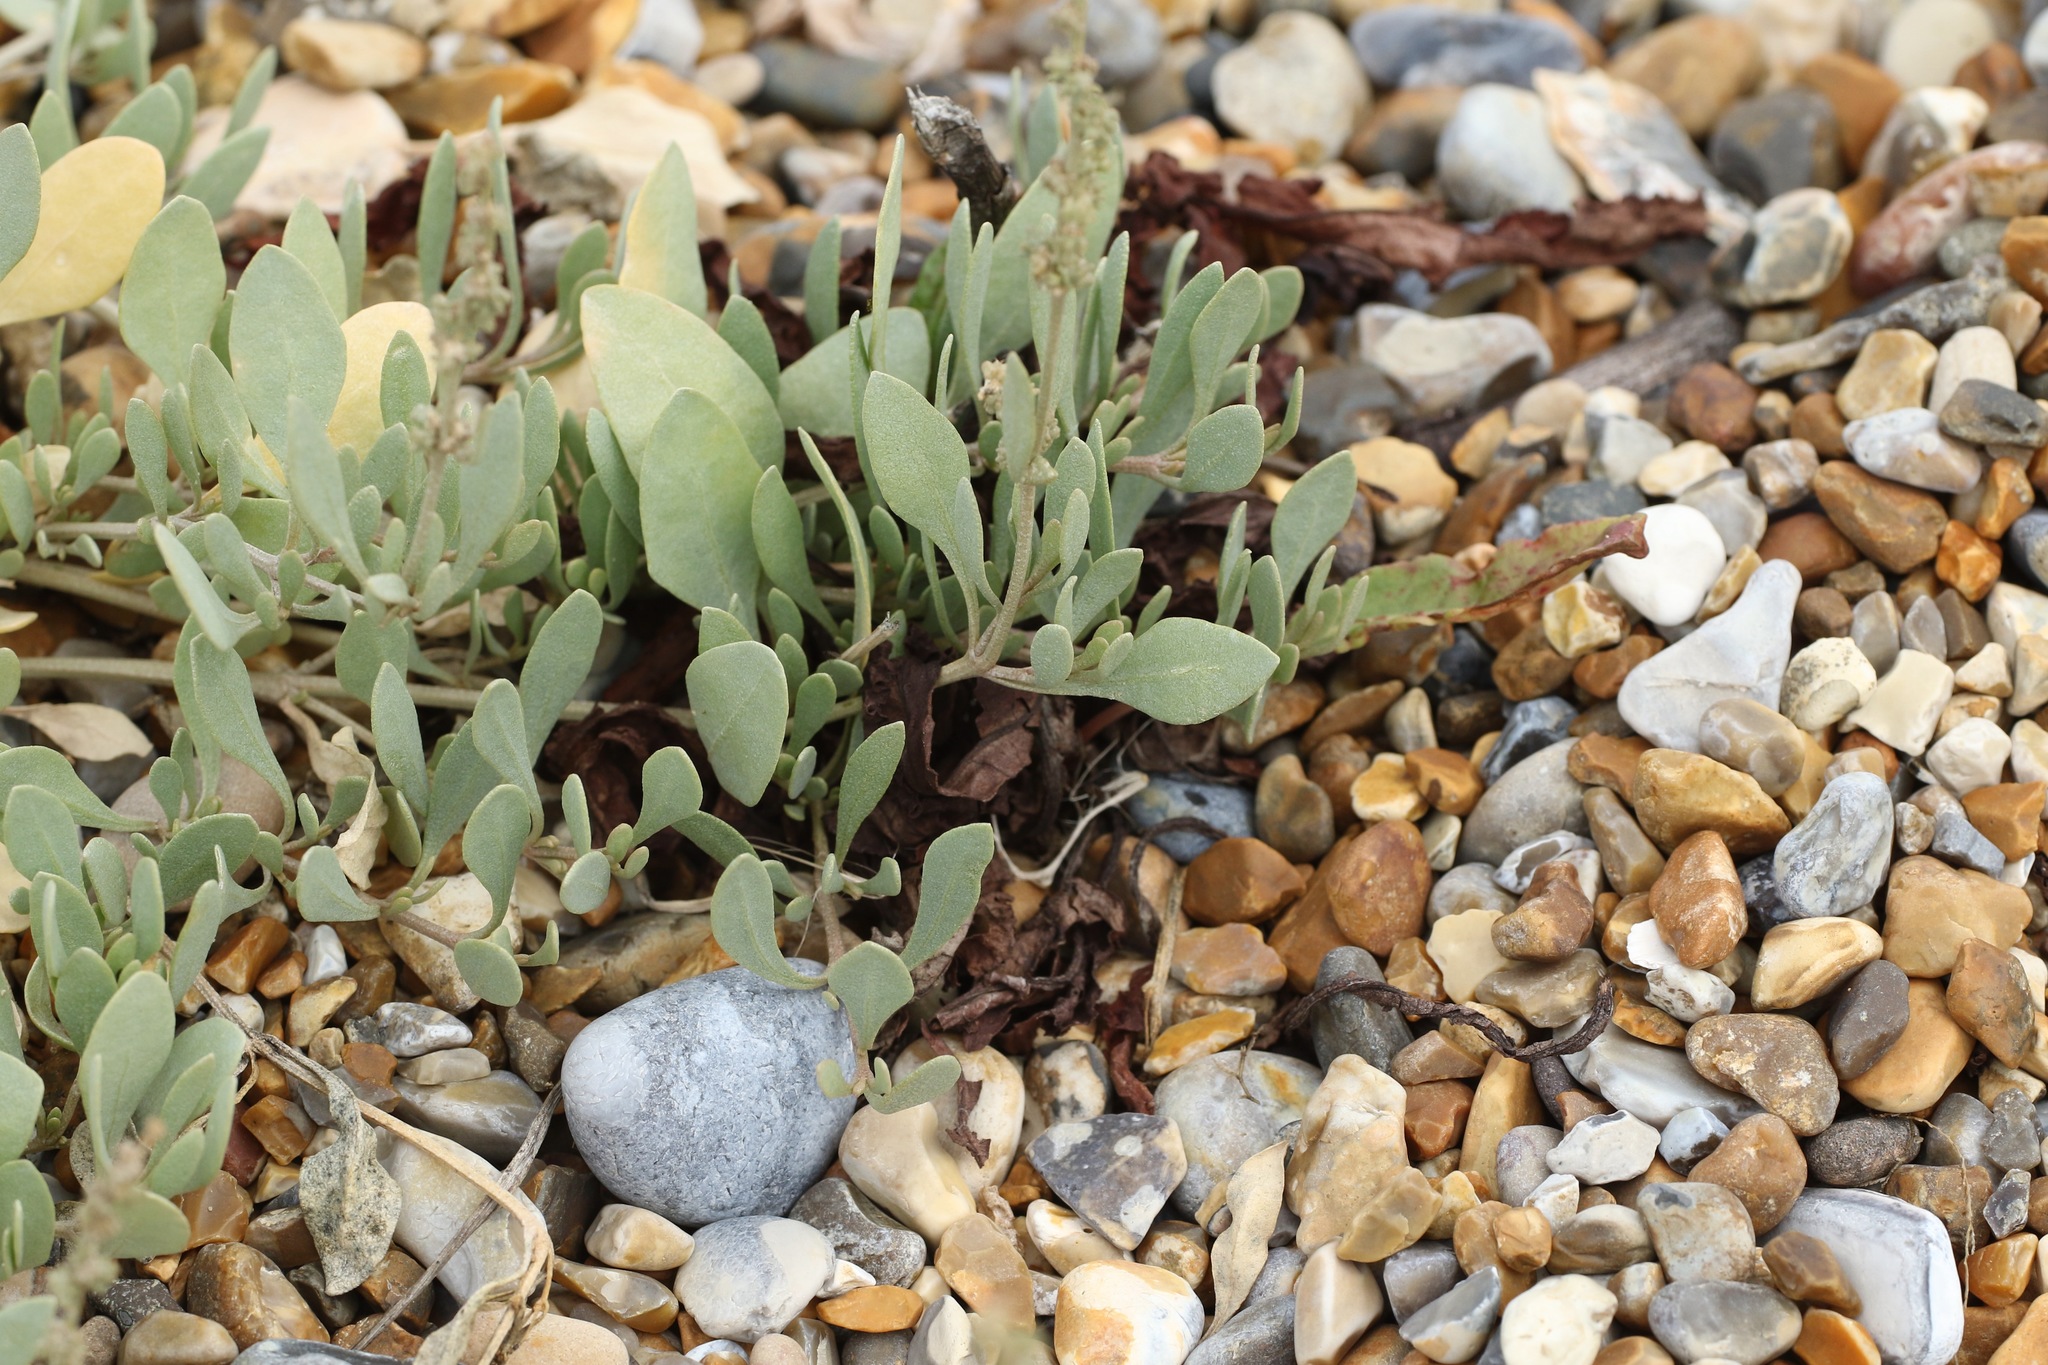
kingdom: Plantae
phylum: Tracheophyta
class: Magnoliopsida
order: Caryophyllales
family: Amaranthaceae
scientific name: Amaranthaceae
